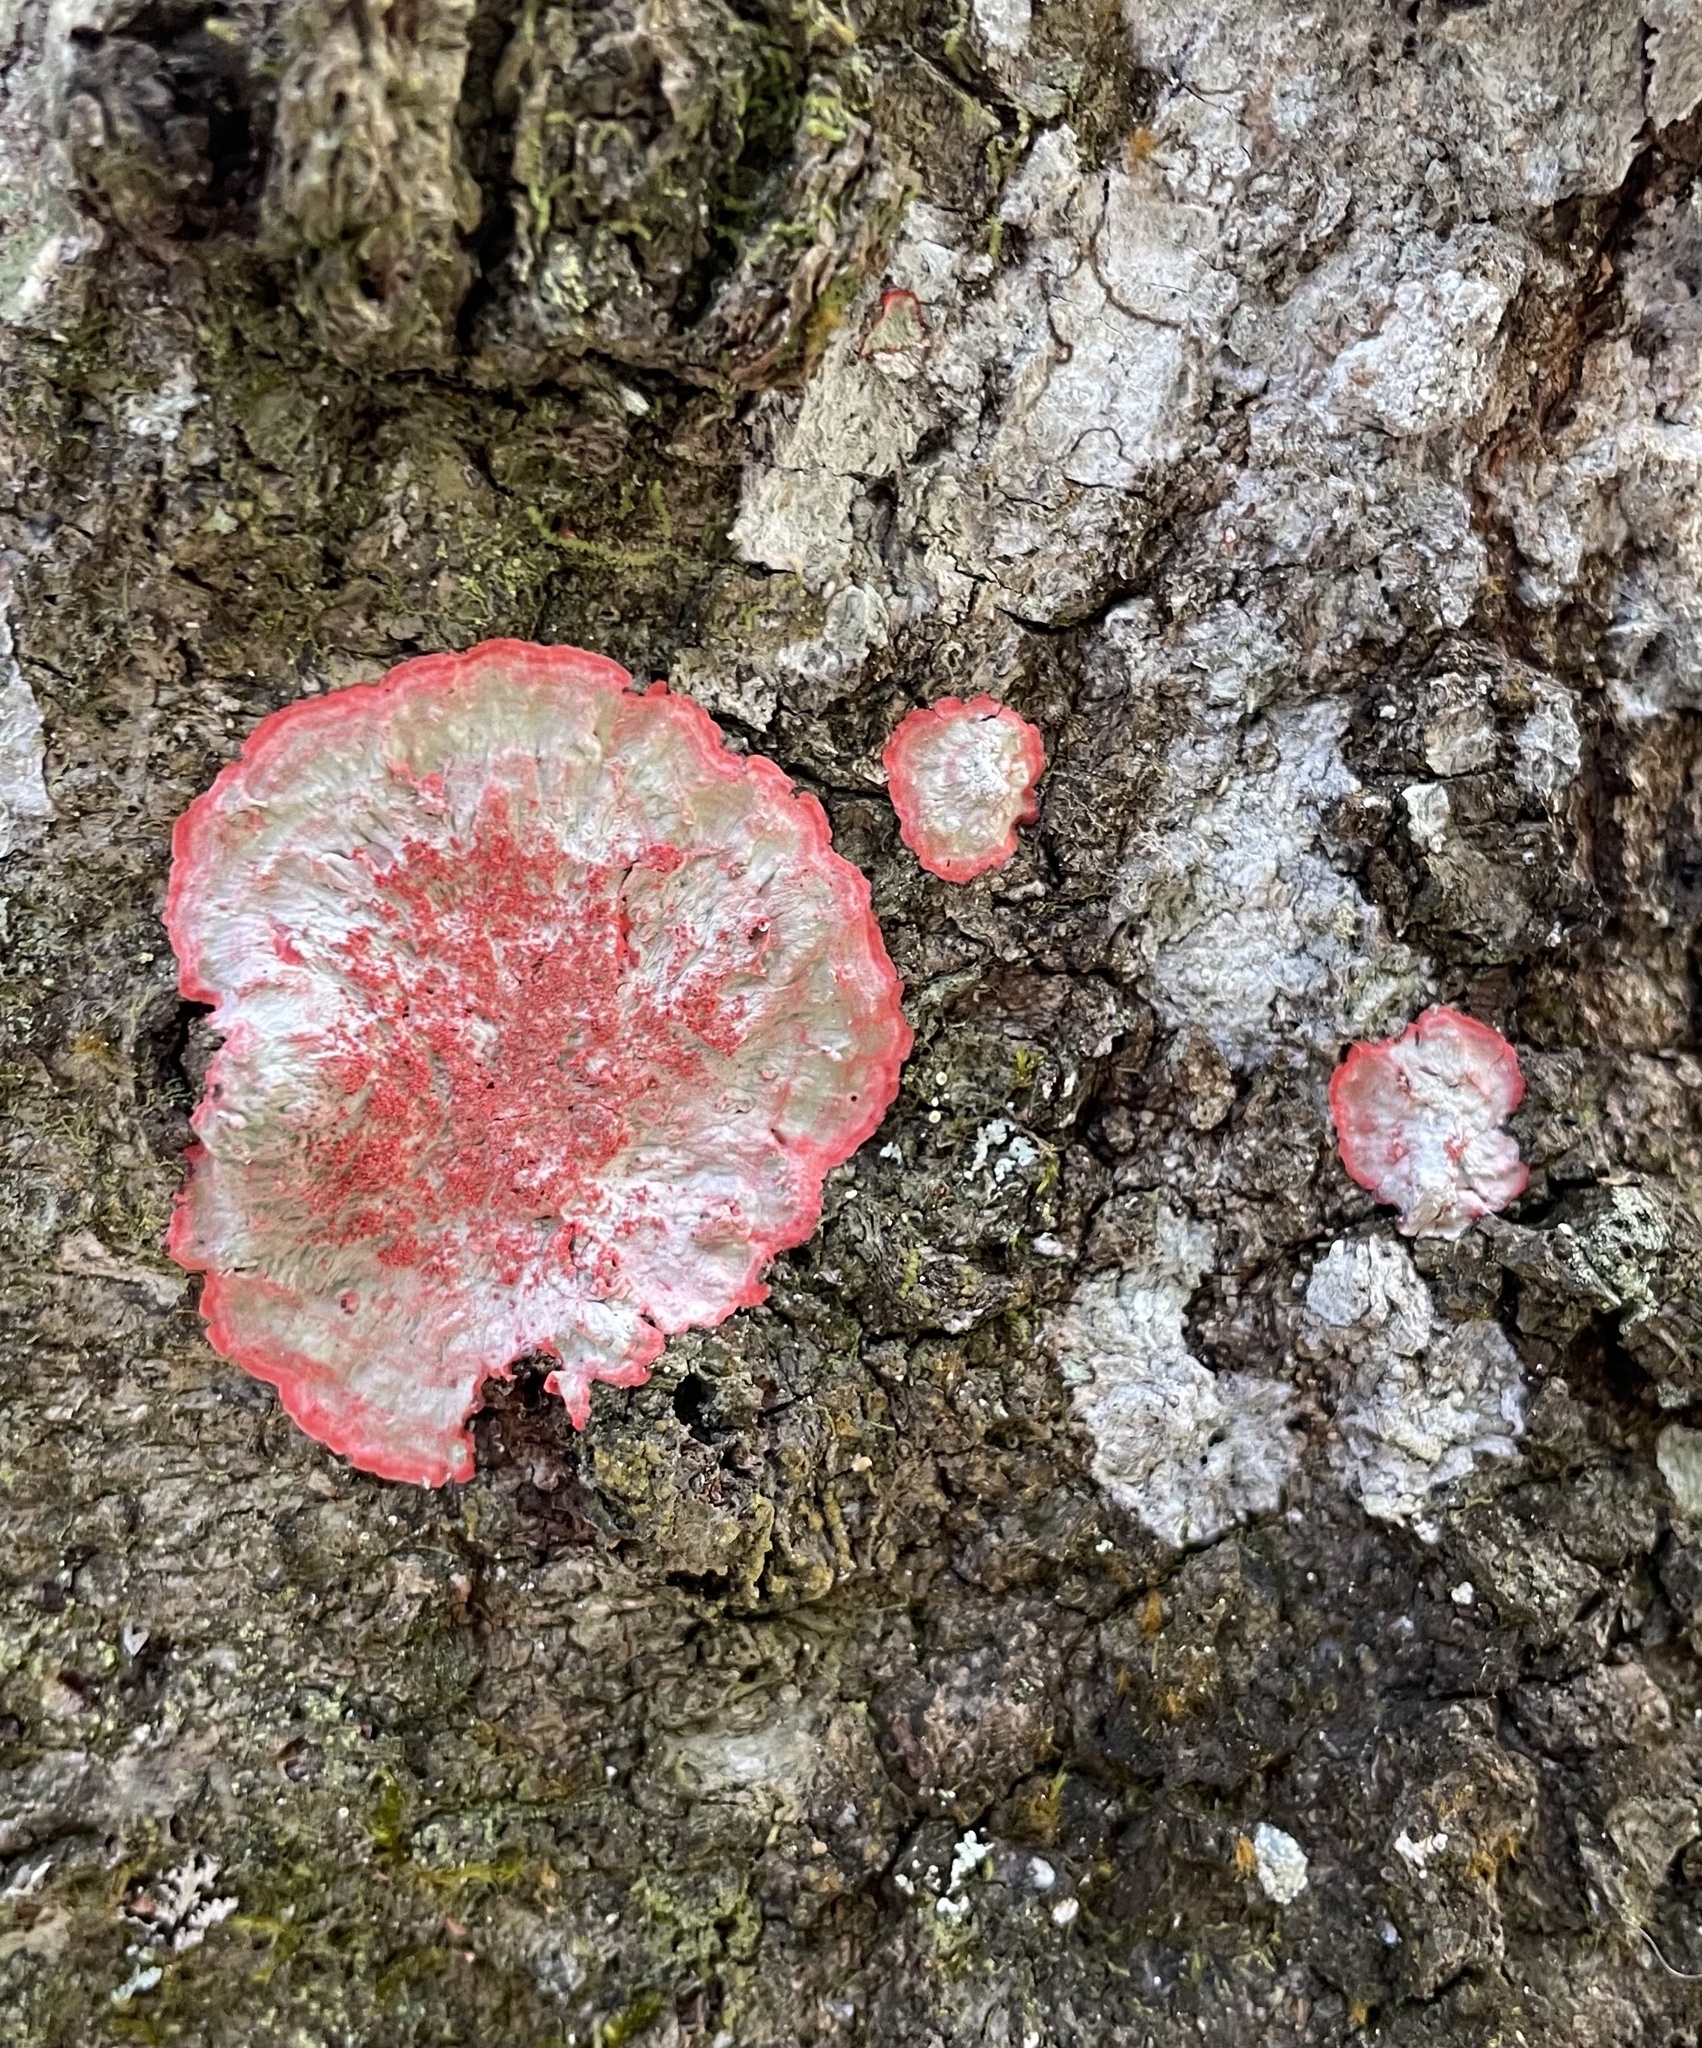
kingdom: Fungi
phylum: Ascomycota
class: Arthoniomycetes
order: Arthoniales
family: Arthoniaceae
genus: Herpothallon
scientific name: Herpothallon rubrocinctum
